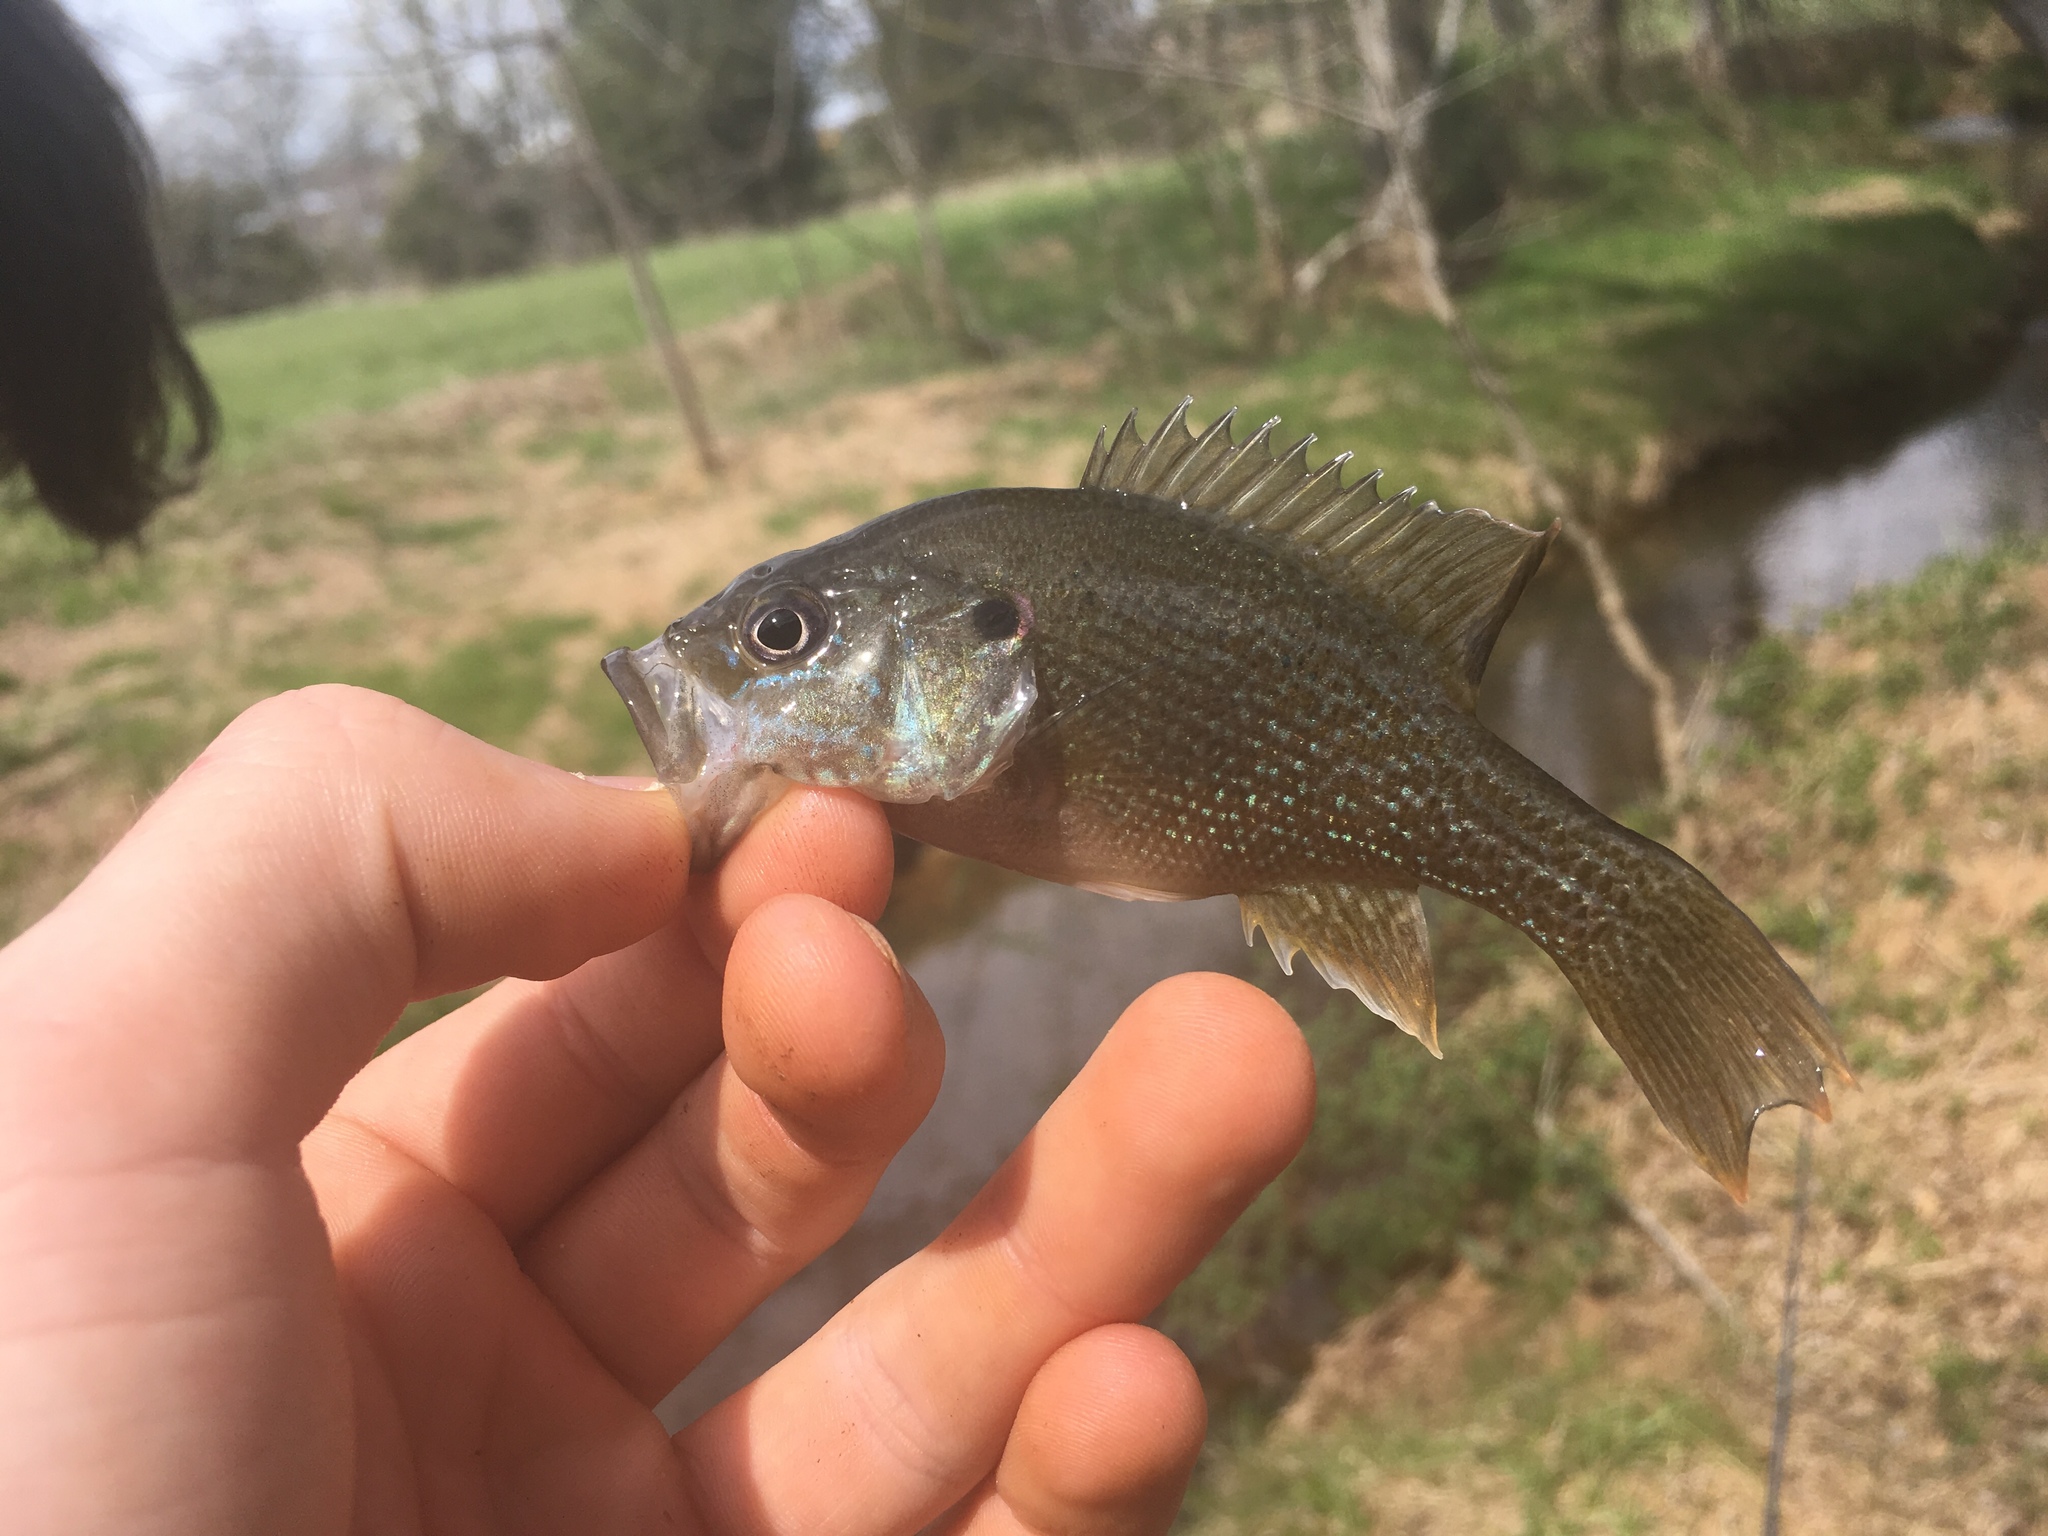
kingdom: Animalia
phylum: Chordata
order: Perciformes
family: Centrarchidae
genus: Lepomis
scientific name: Lepomis cyanellus
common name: Green sunfish
